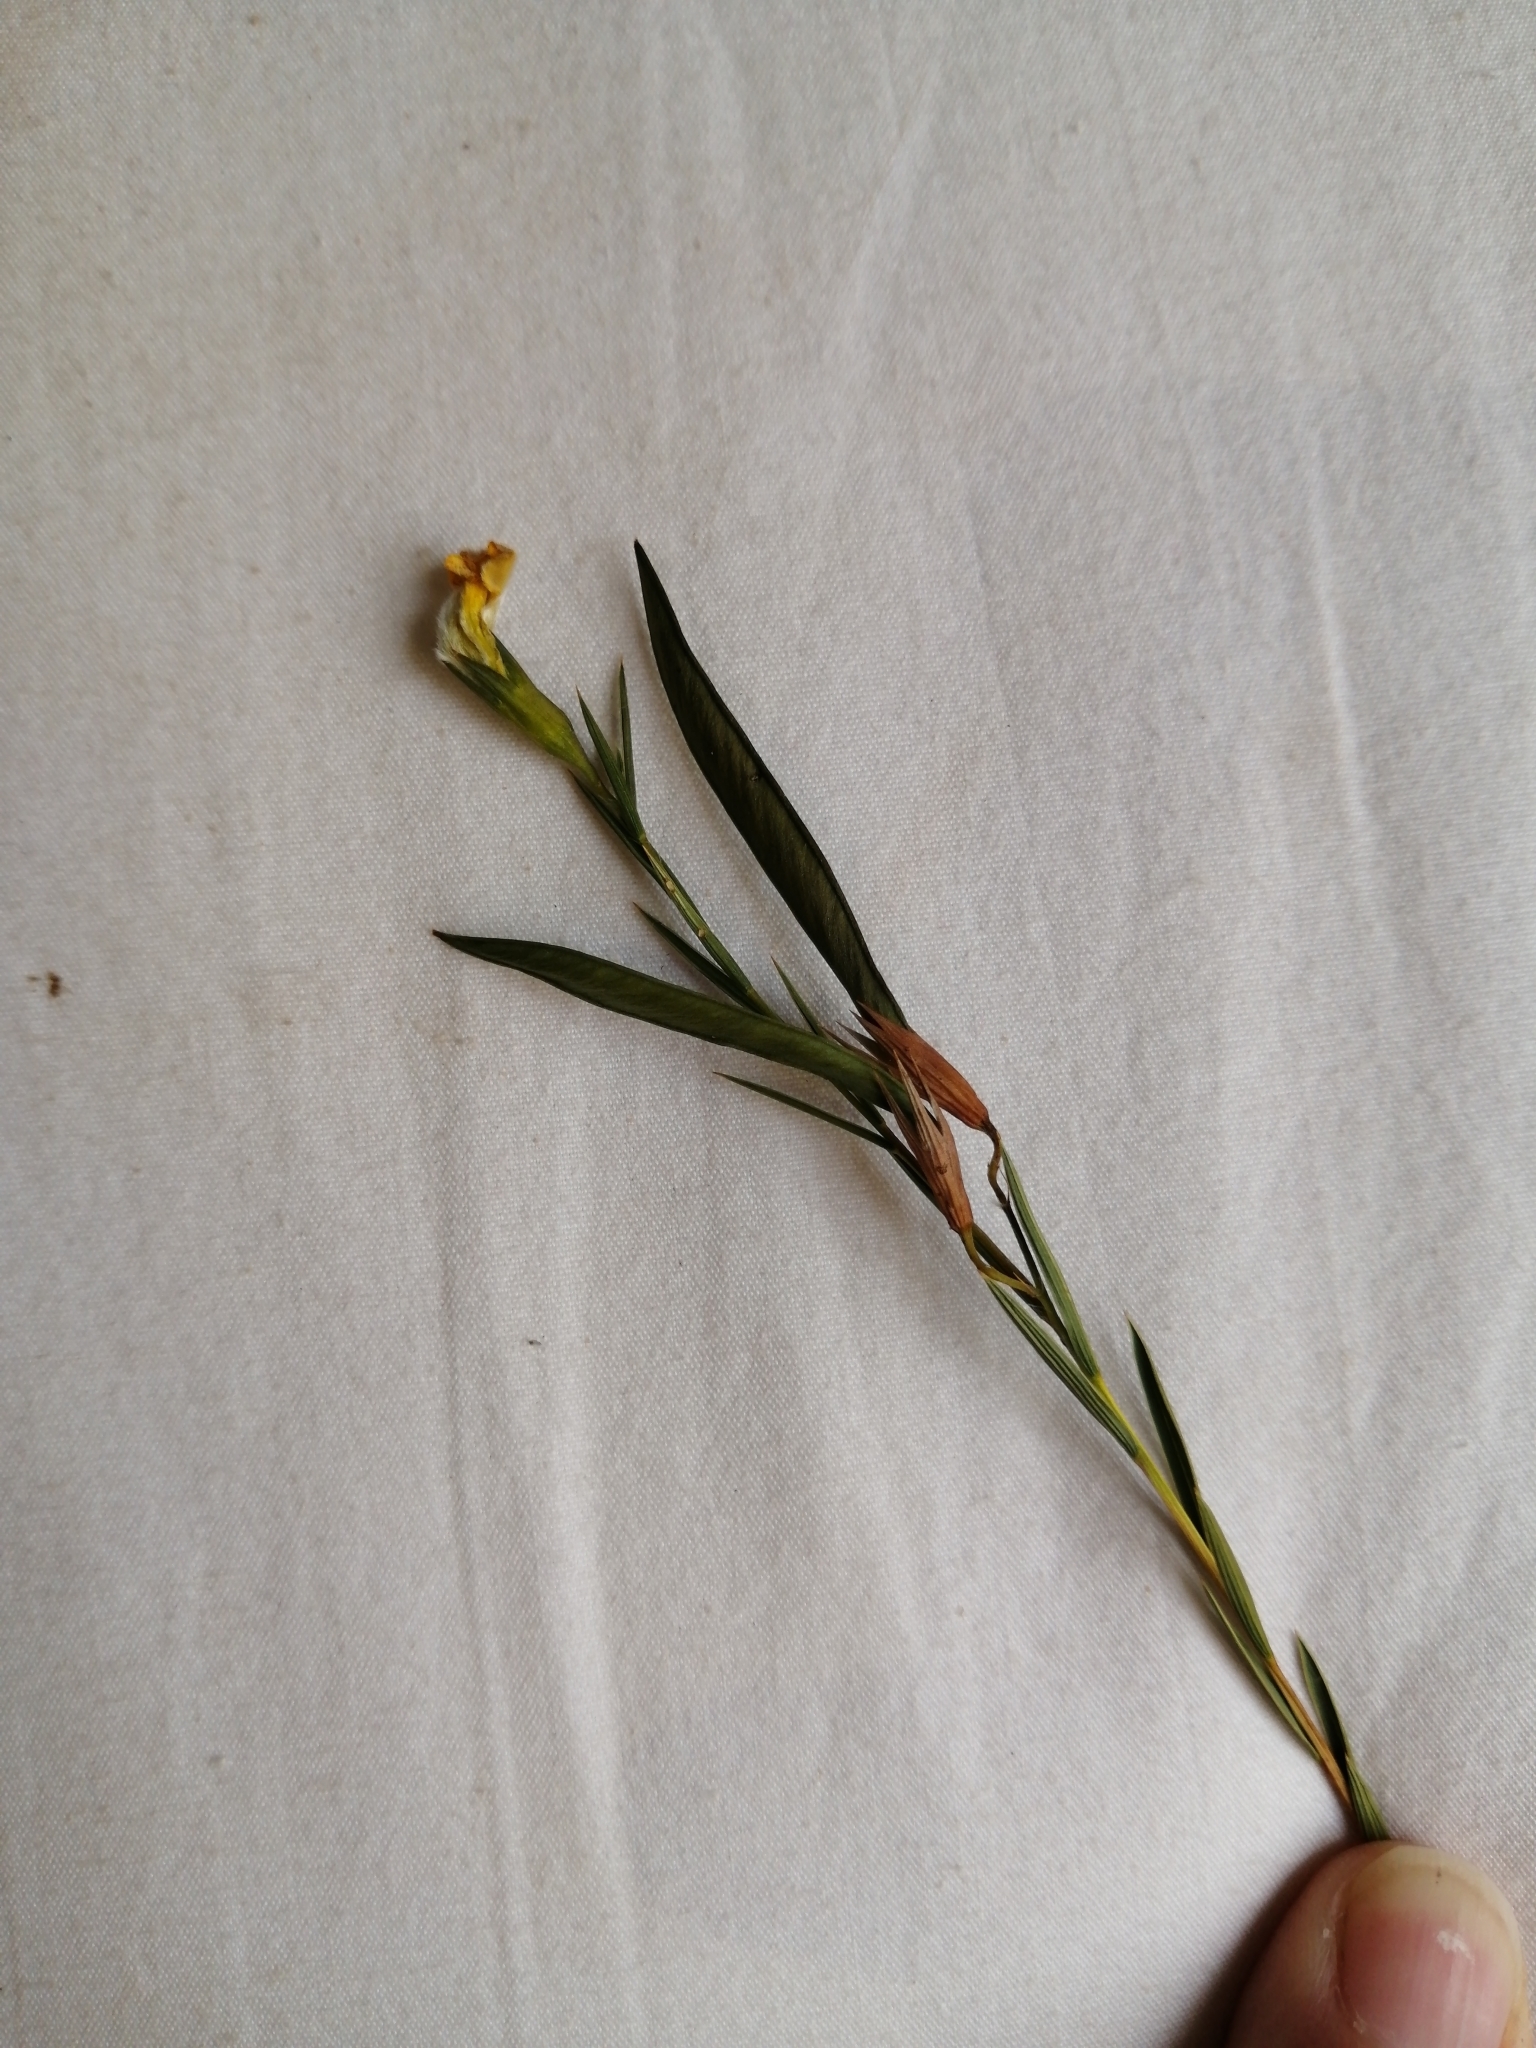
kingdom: Plantae
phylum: Tracheophyta
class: Magnoliopsida
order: Fabales
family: Fabaceae
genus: Aspalathus
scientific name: Aspalathus angustifolia
